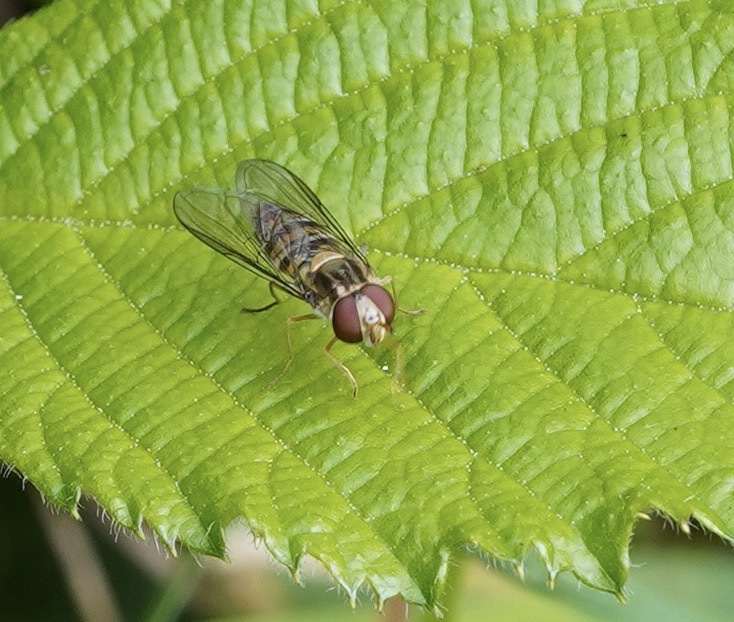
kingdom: Animalia
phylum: Arthropoda
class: Insecta
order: Diptera
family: Syrphidae
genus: Episyrphus
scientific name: Episyrphus balteatus
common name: Marmalade hoverfly
